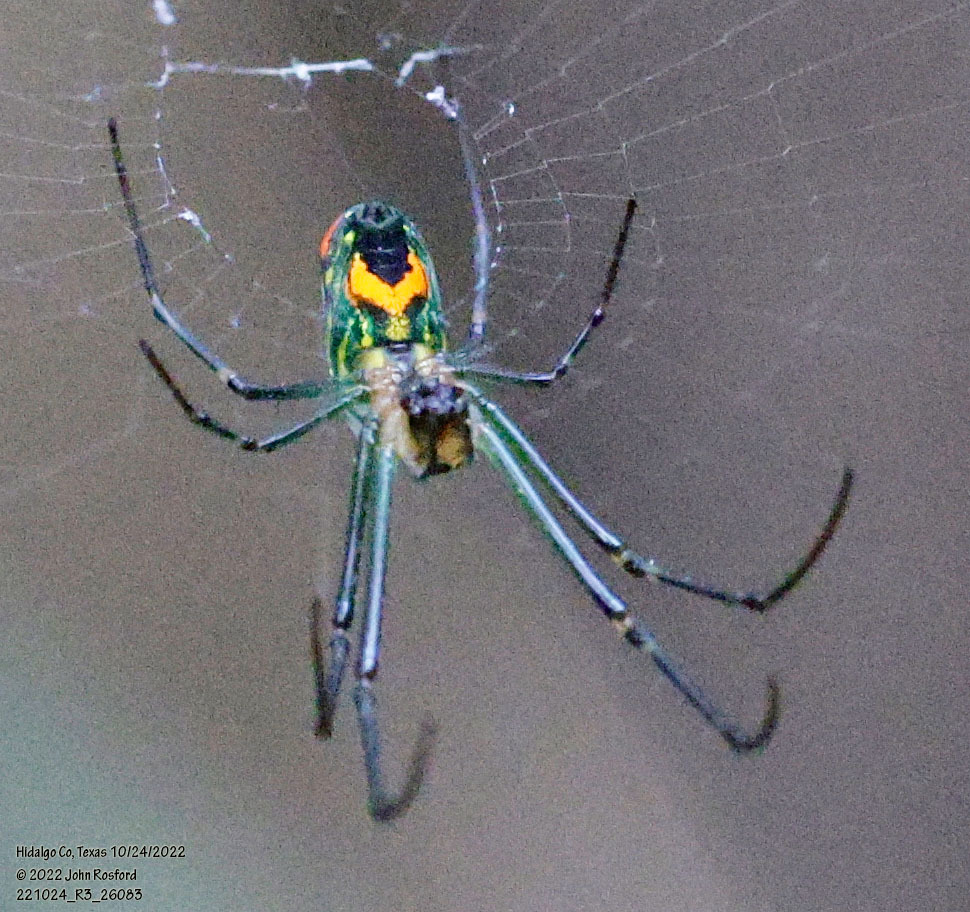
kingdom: Animalia
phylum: Arthropoda
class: Arachnida
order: Araneae
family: Tetragnathidae
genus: Leucauge
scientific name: Leucauge mariana
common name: Longjawed orb weavers
